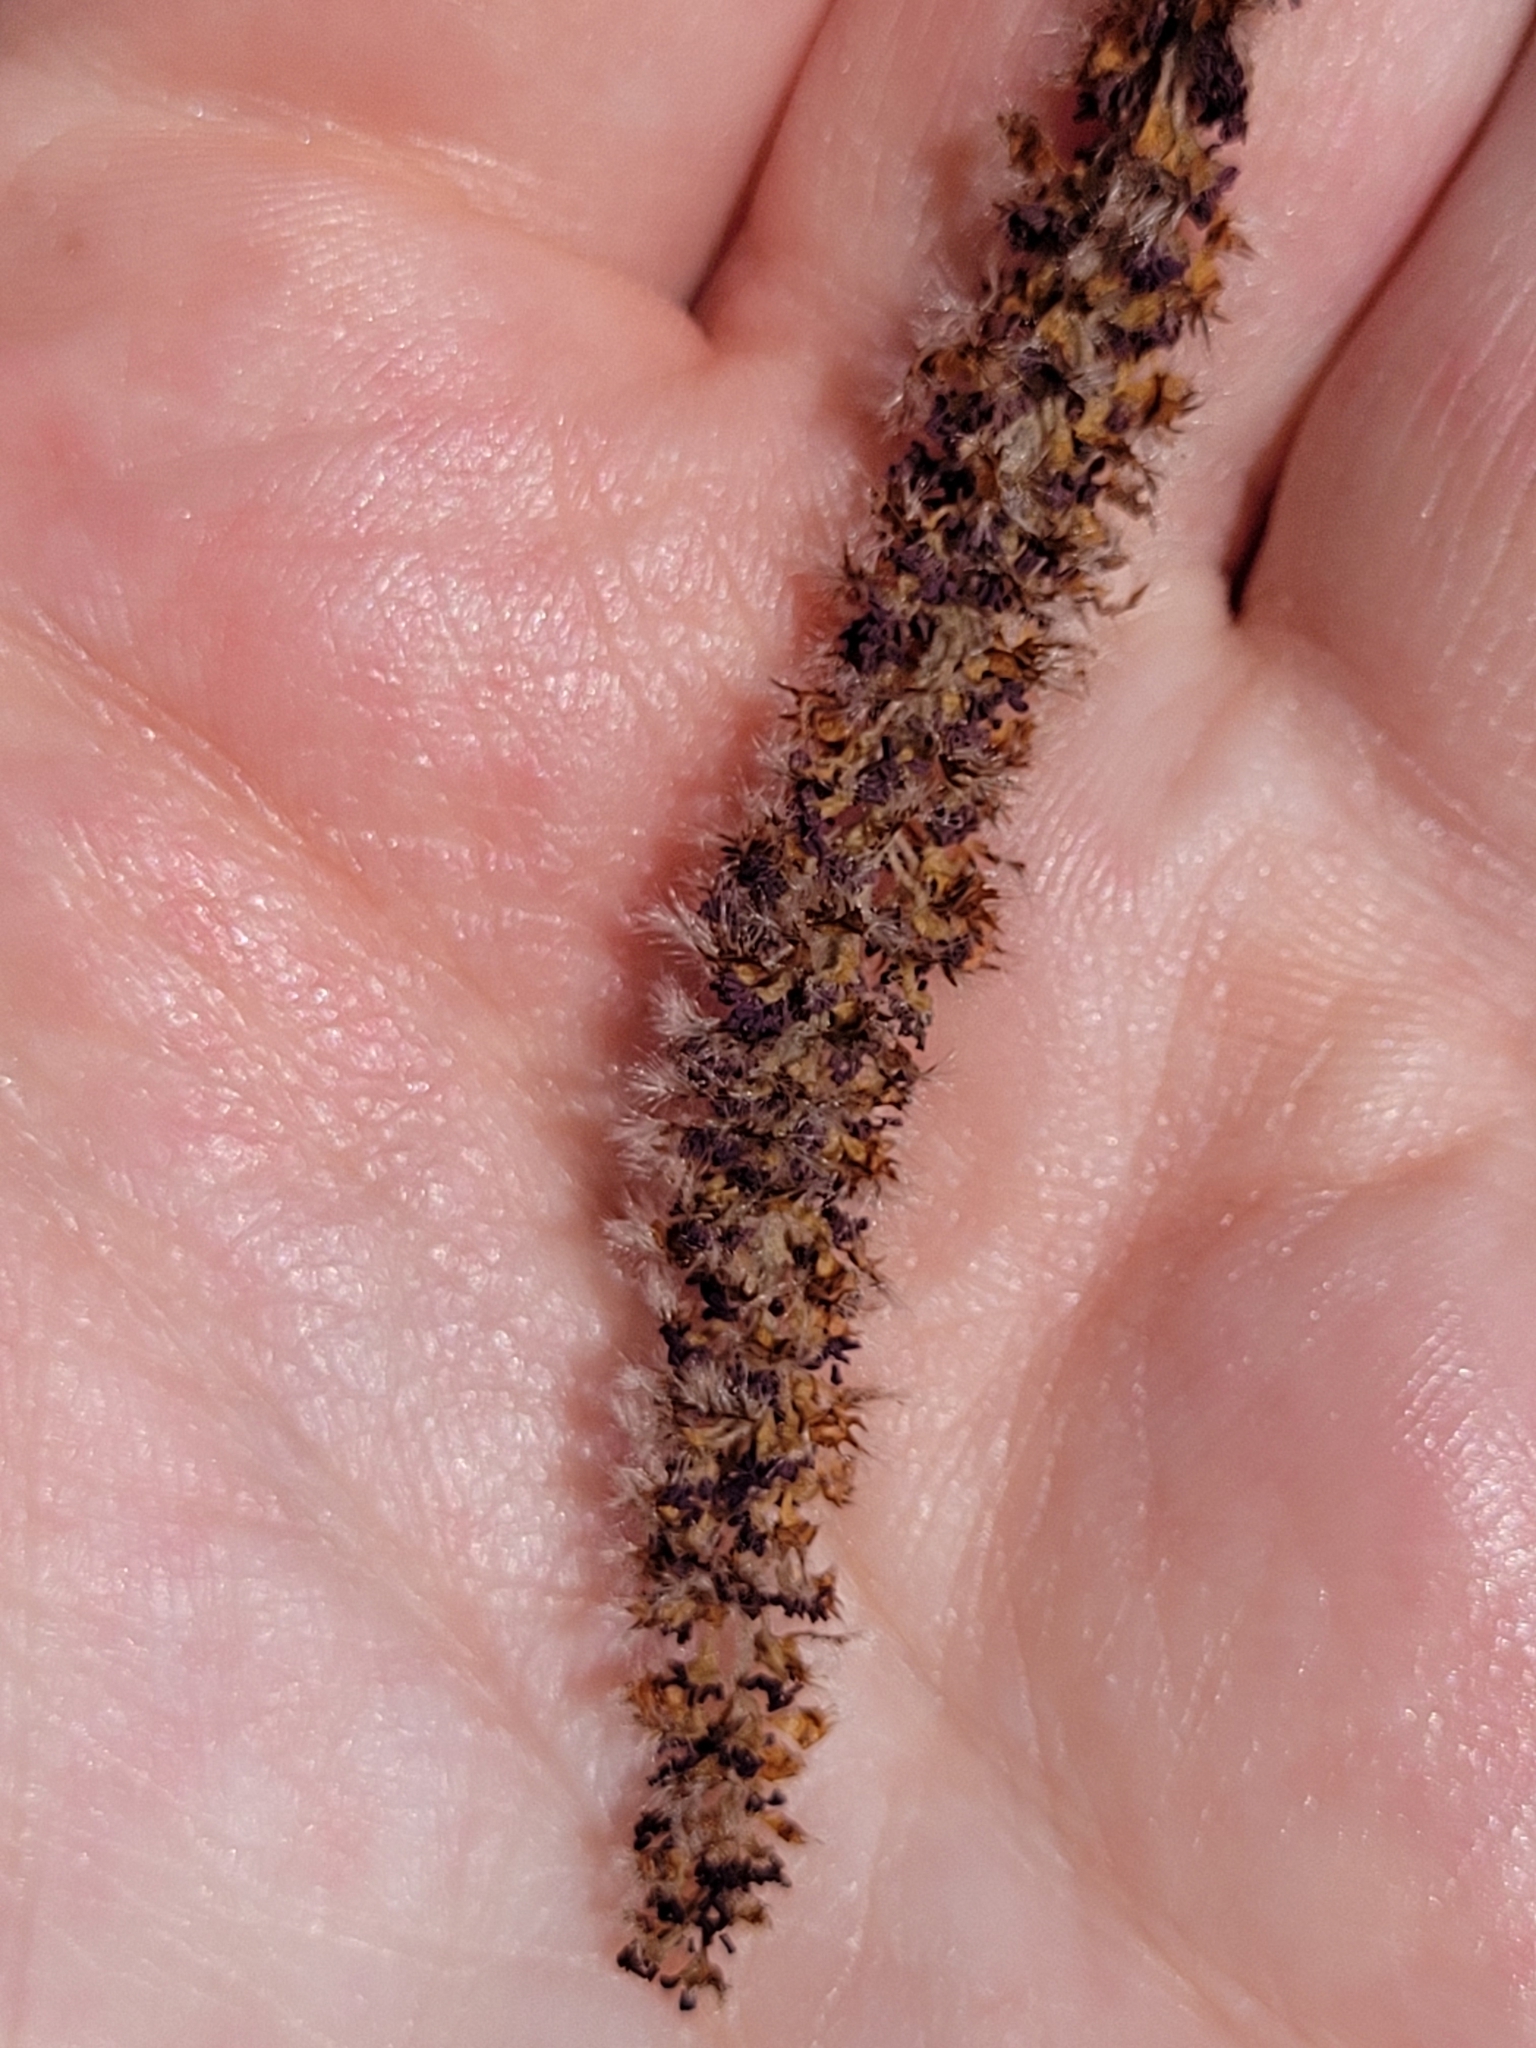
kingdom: Plantae
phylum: Tracheophyta
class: Magnoliopsida
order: Malpighiales
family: Salicaceae
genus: Populus
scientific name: Populus grandidentata
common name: Bigtooth aspen
